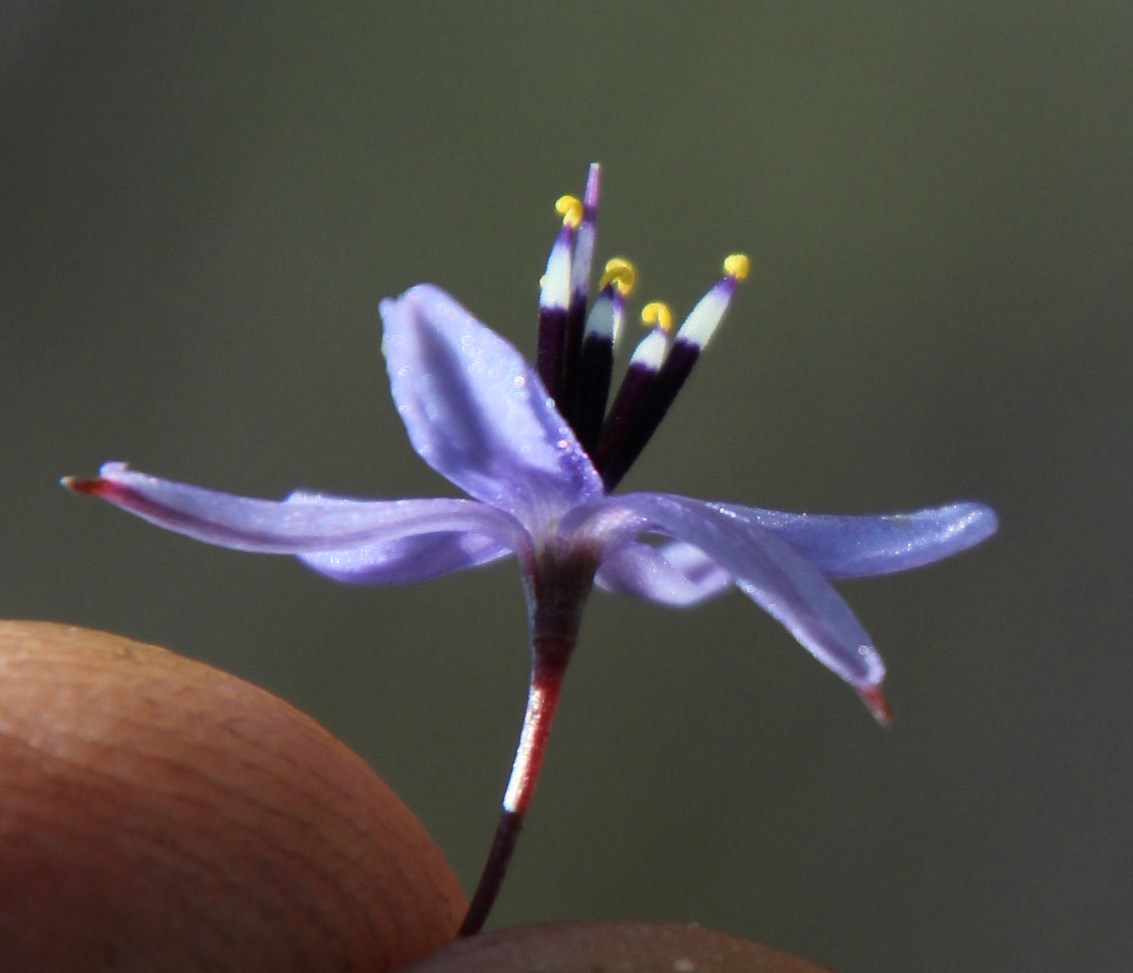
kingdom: Plantae
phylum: Tracheophyta
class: Liliopsida
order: Asparagales
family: Asphodelaceae
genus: Caesia
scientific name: Caesia contorta
